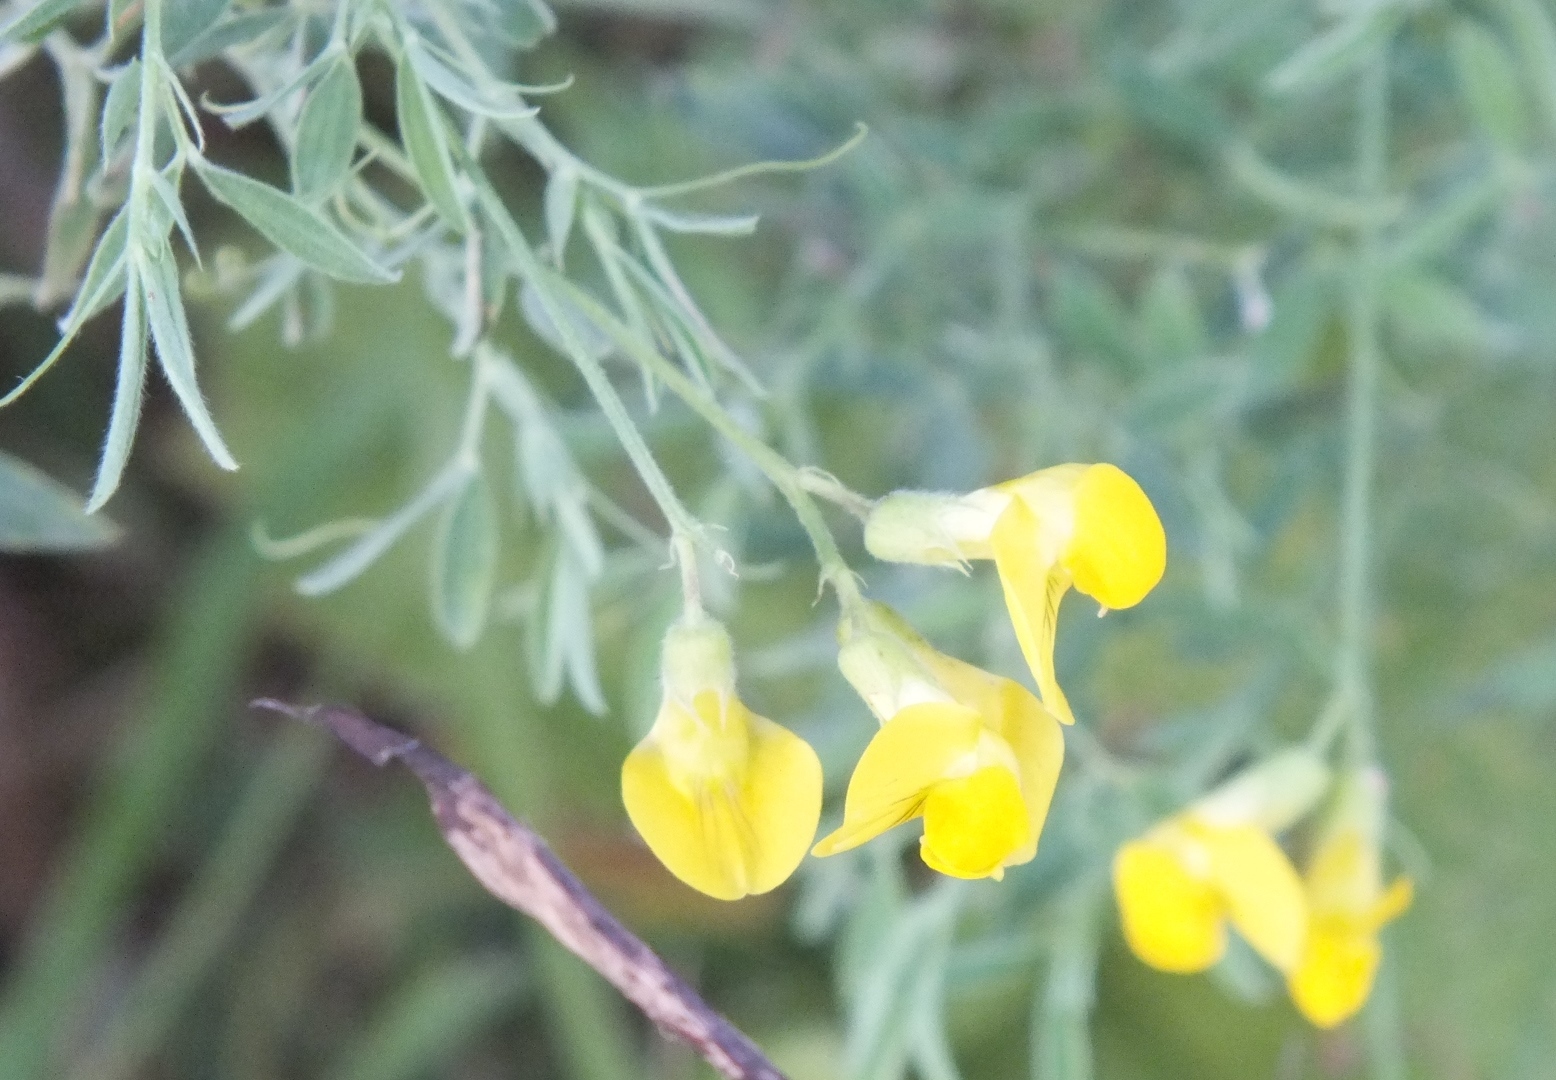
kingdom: Plantae
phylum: Tracheophyta
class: Magnoliopsida
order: Fabales
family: Fabaceae
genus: Lathyrus
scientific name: Lathyrus pratensis
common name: Meadow vetchling
